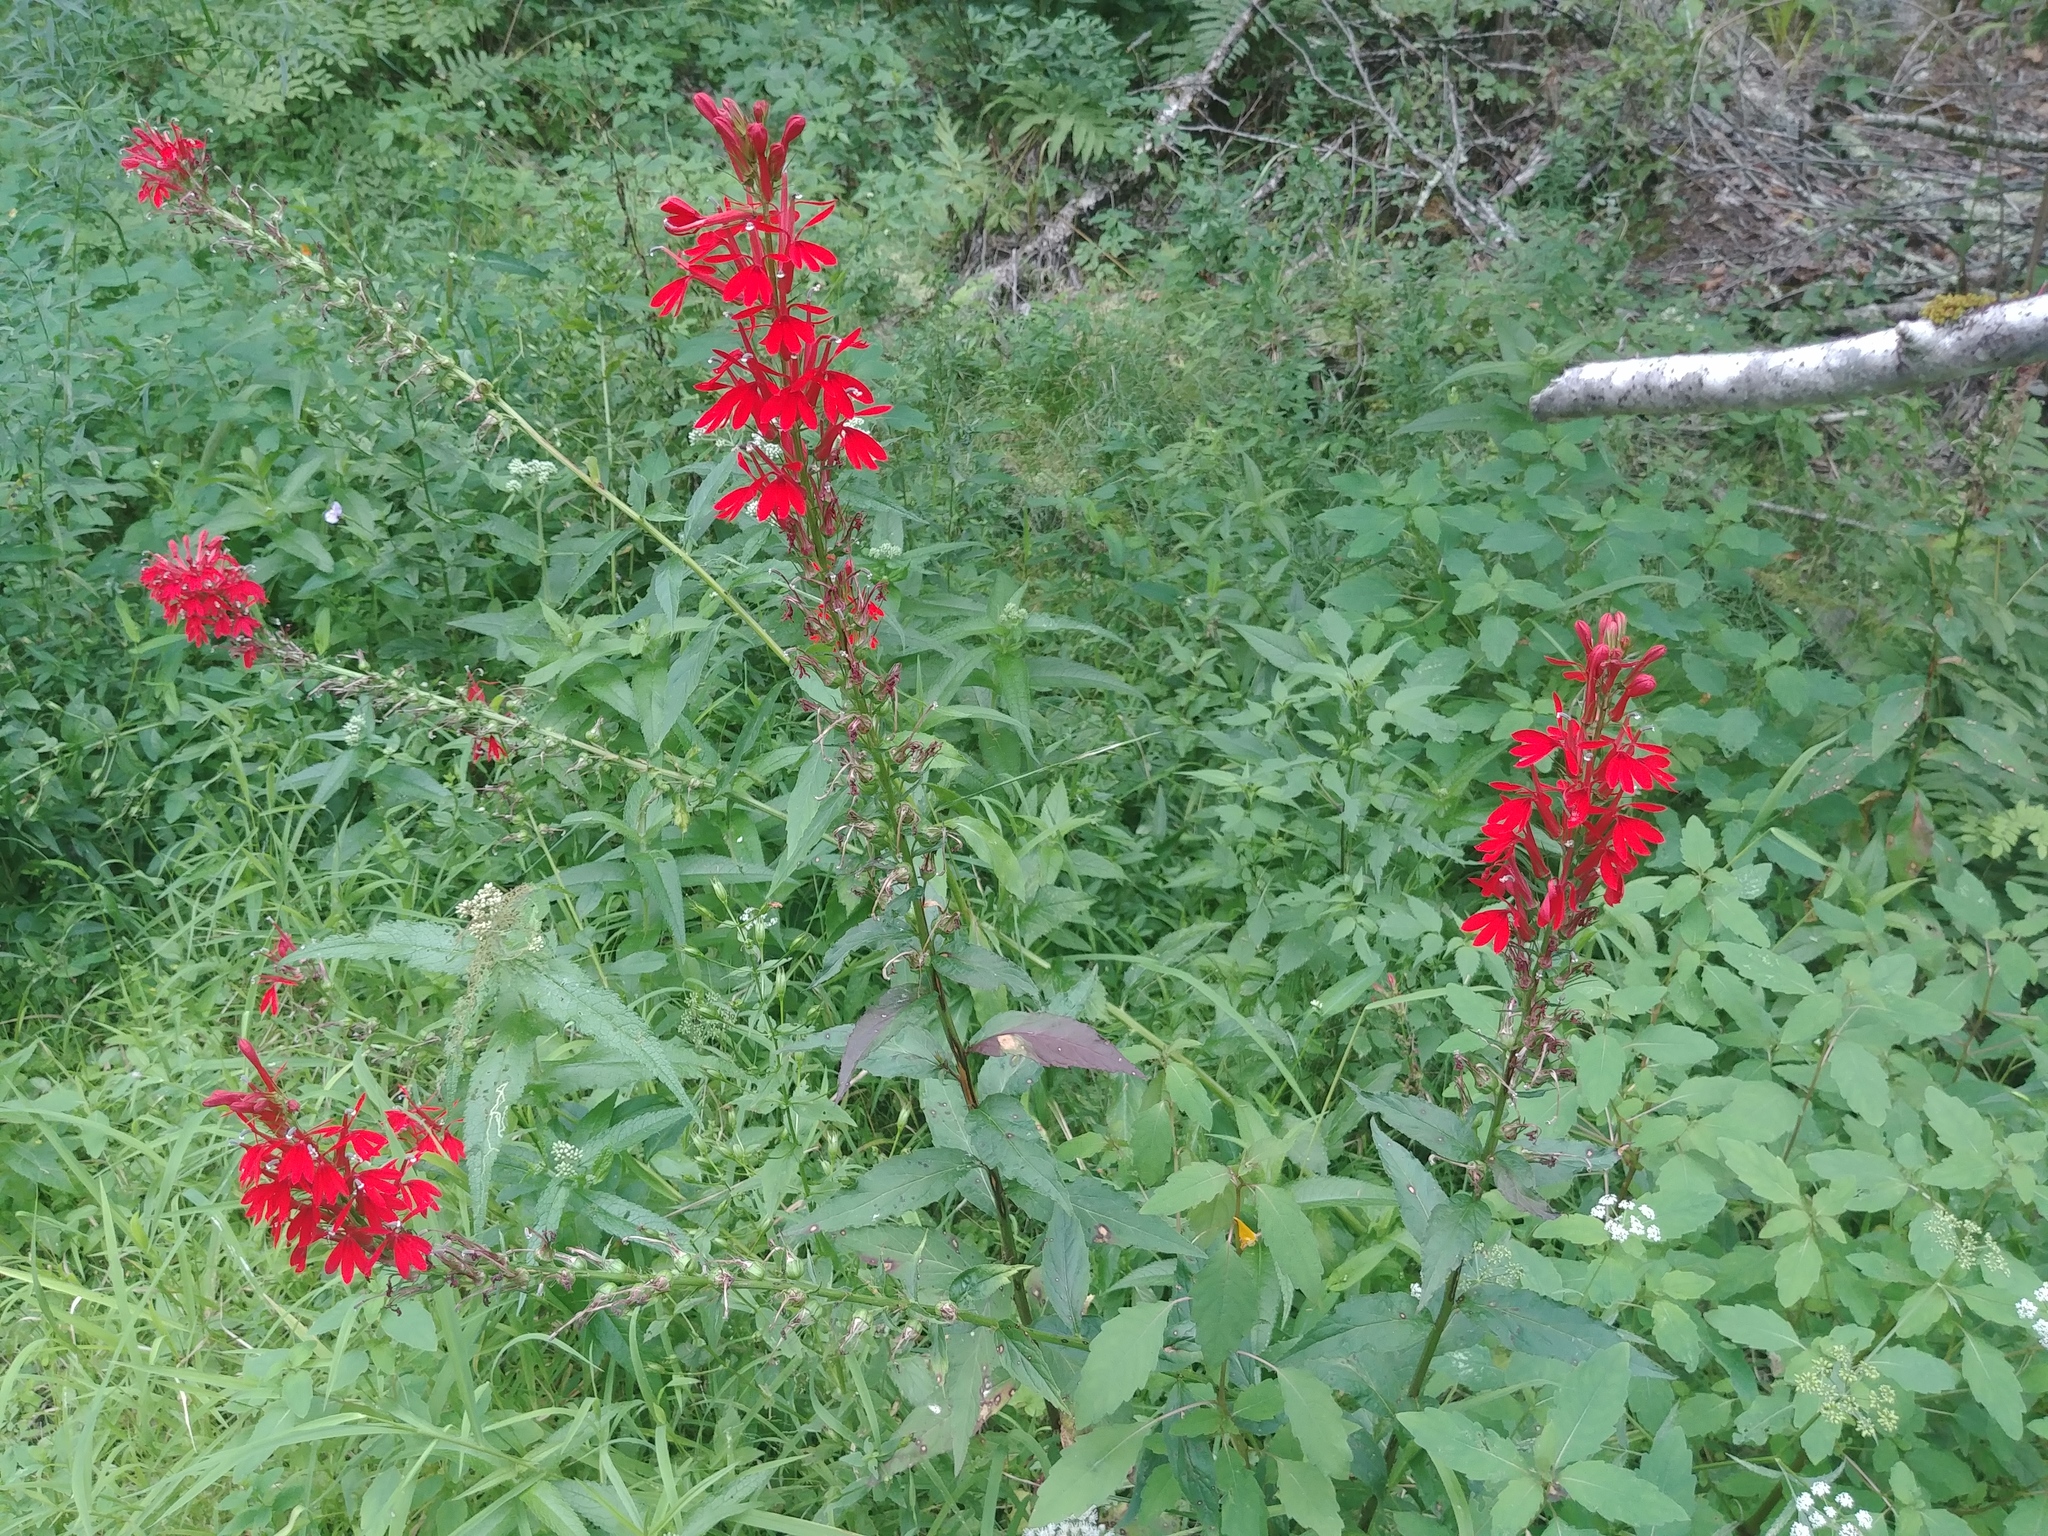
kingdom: Plantae
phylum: Tracheophyta
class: Magnoliopsida
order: Asterales
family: Campanulaceae
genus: Lobelia
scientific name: Lobelia cardinalis
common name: Cardinal flower
